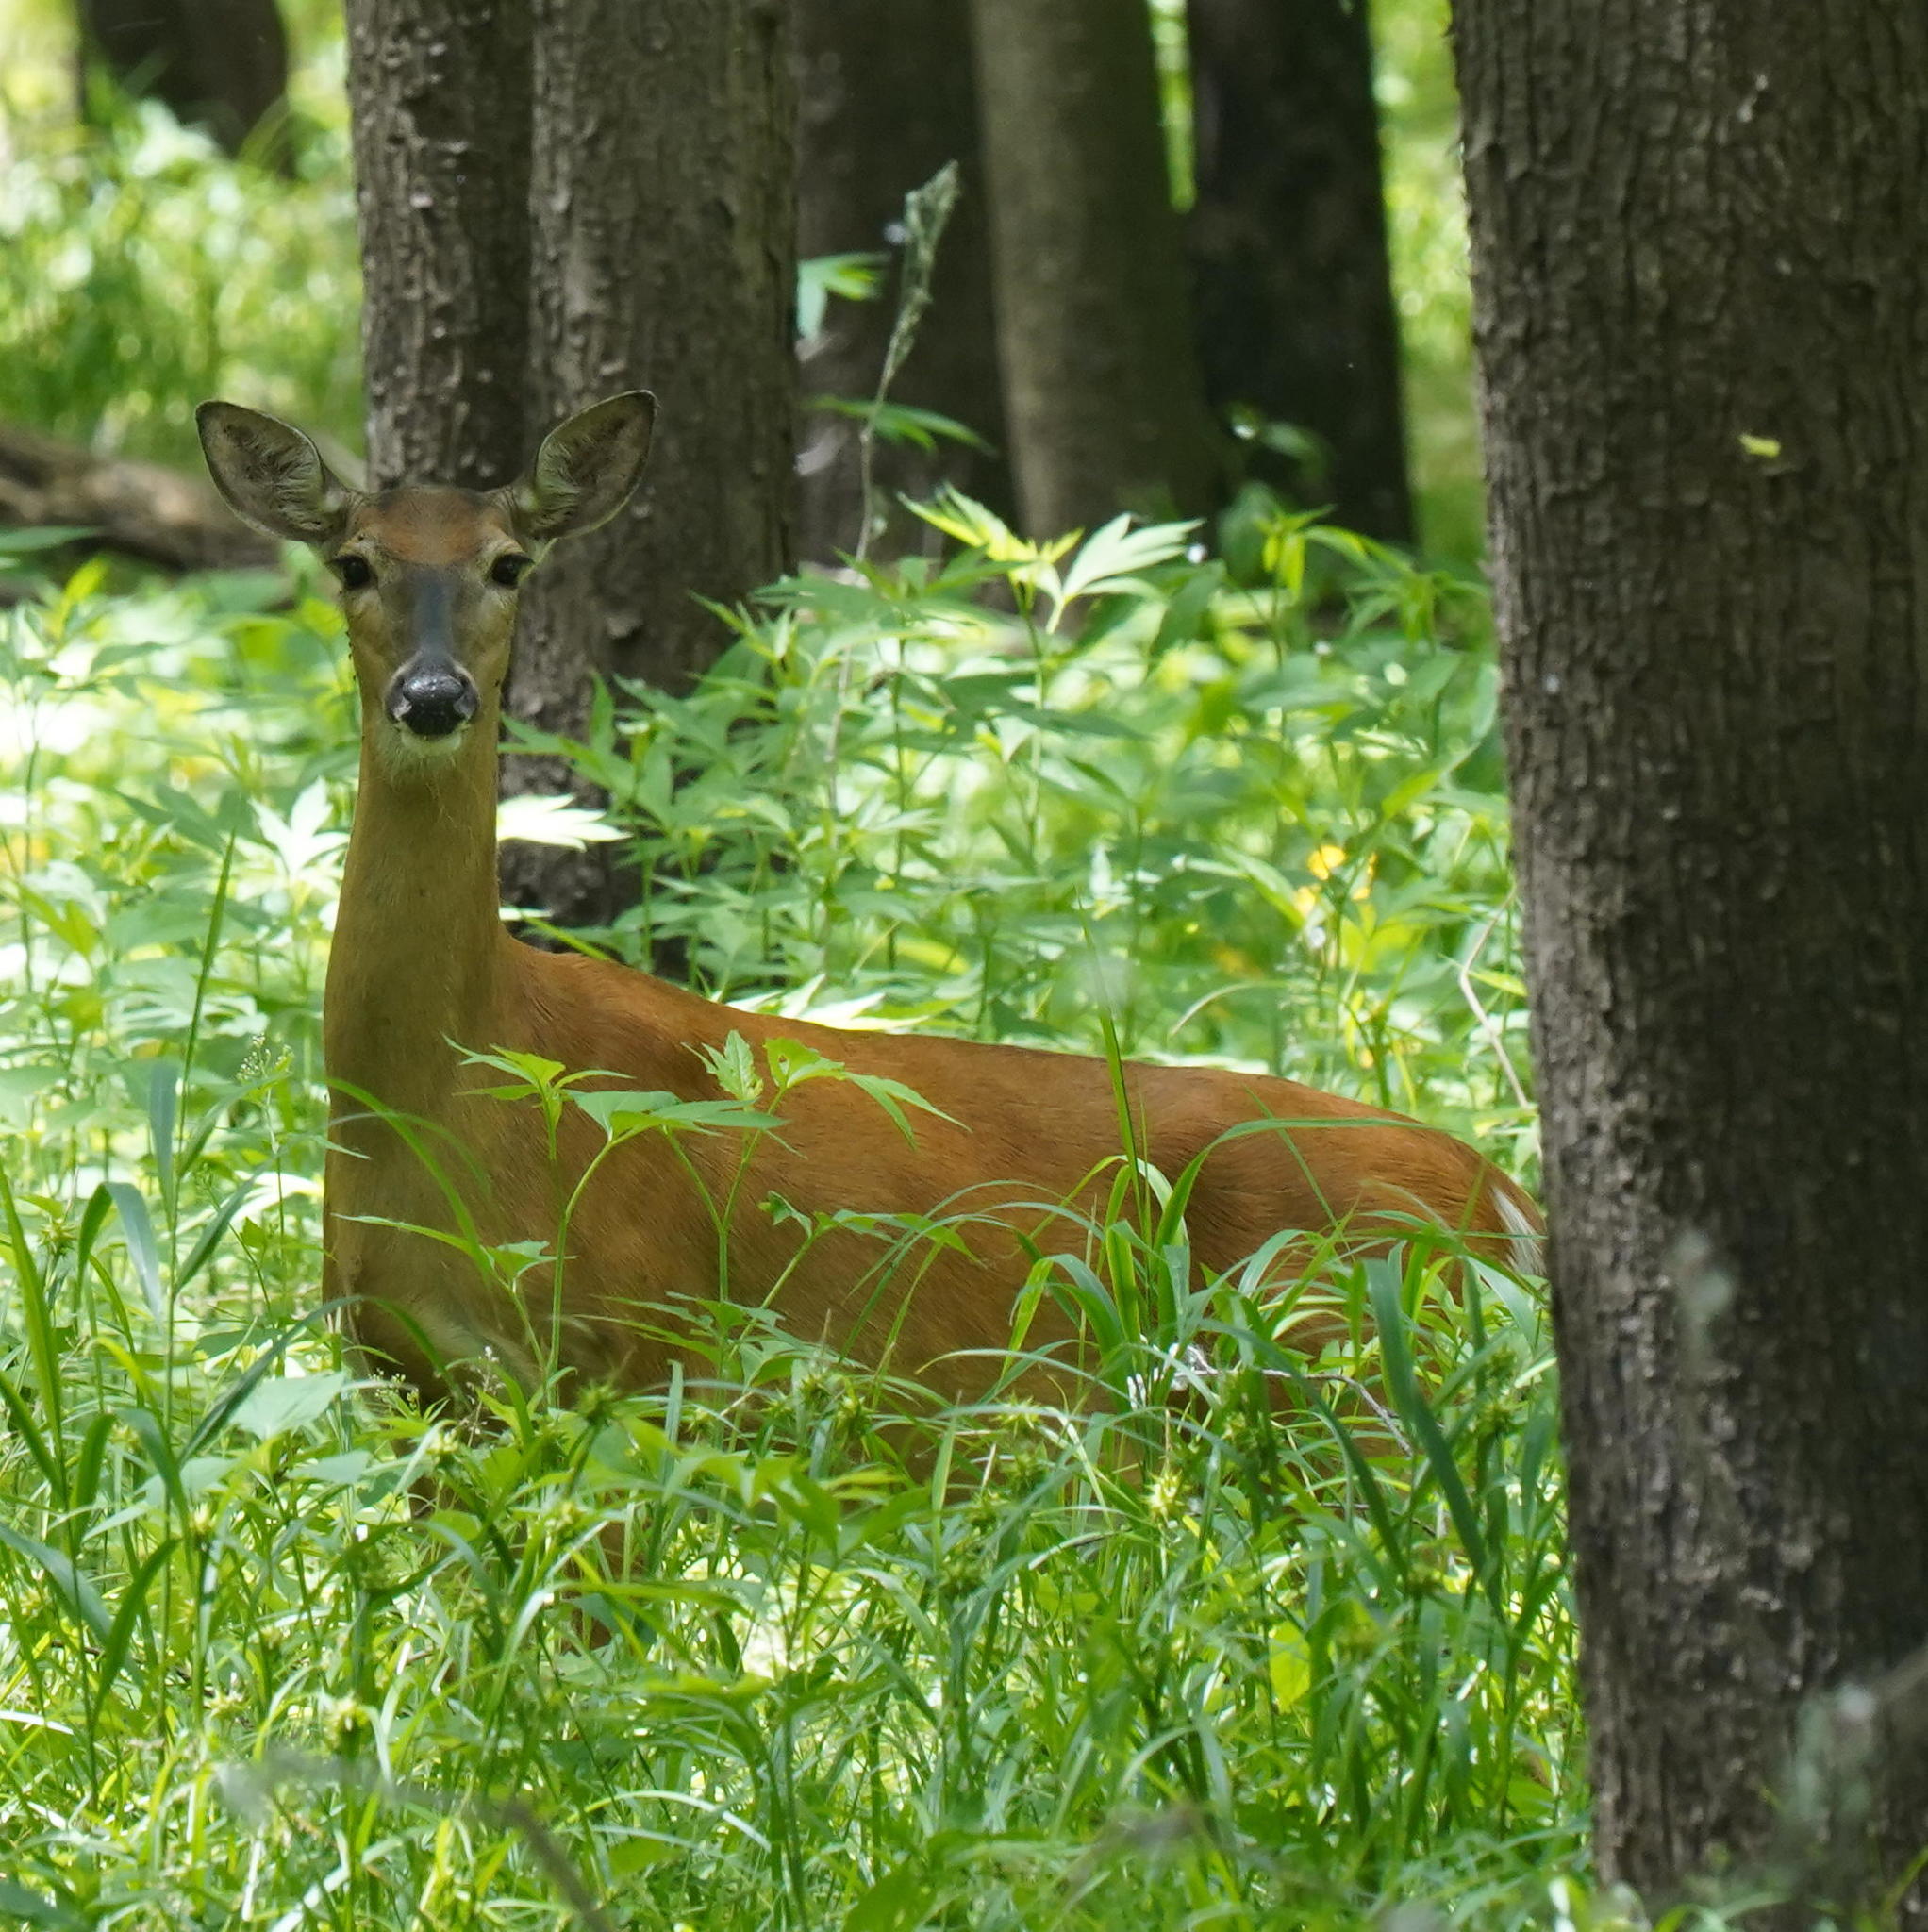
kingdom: Animalia
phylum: Chordata
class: Mammalia
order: Artiodactyla
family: Cervidae
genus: Odocoileus
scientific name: Odocoileus virginianus
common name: White-tailed deer
